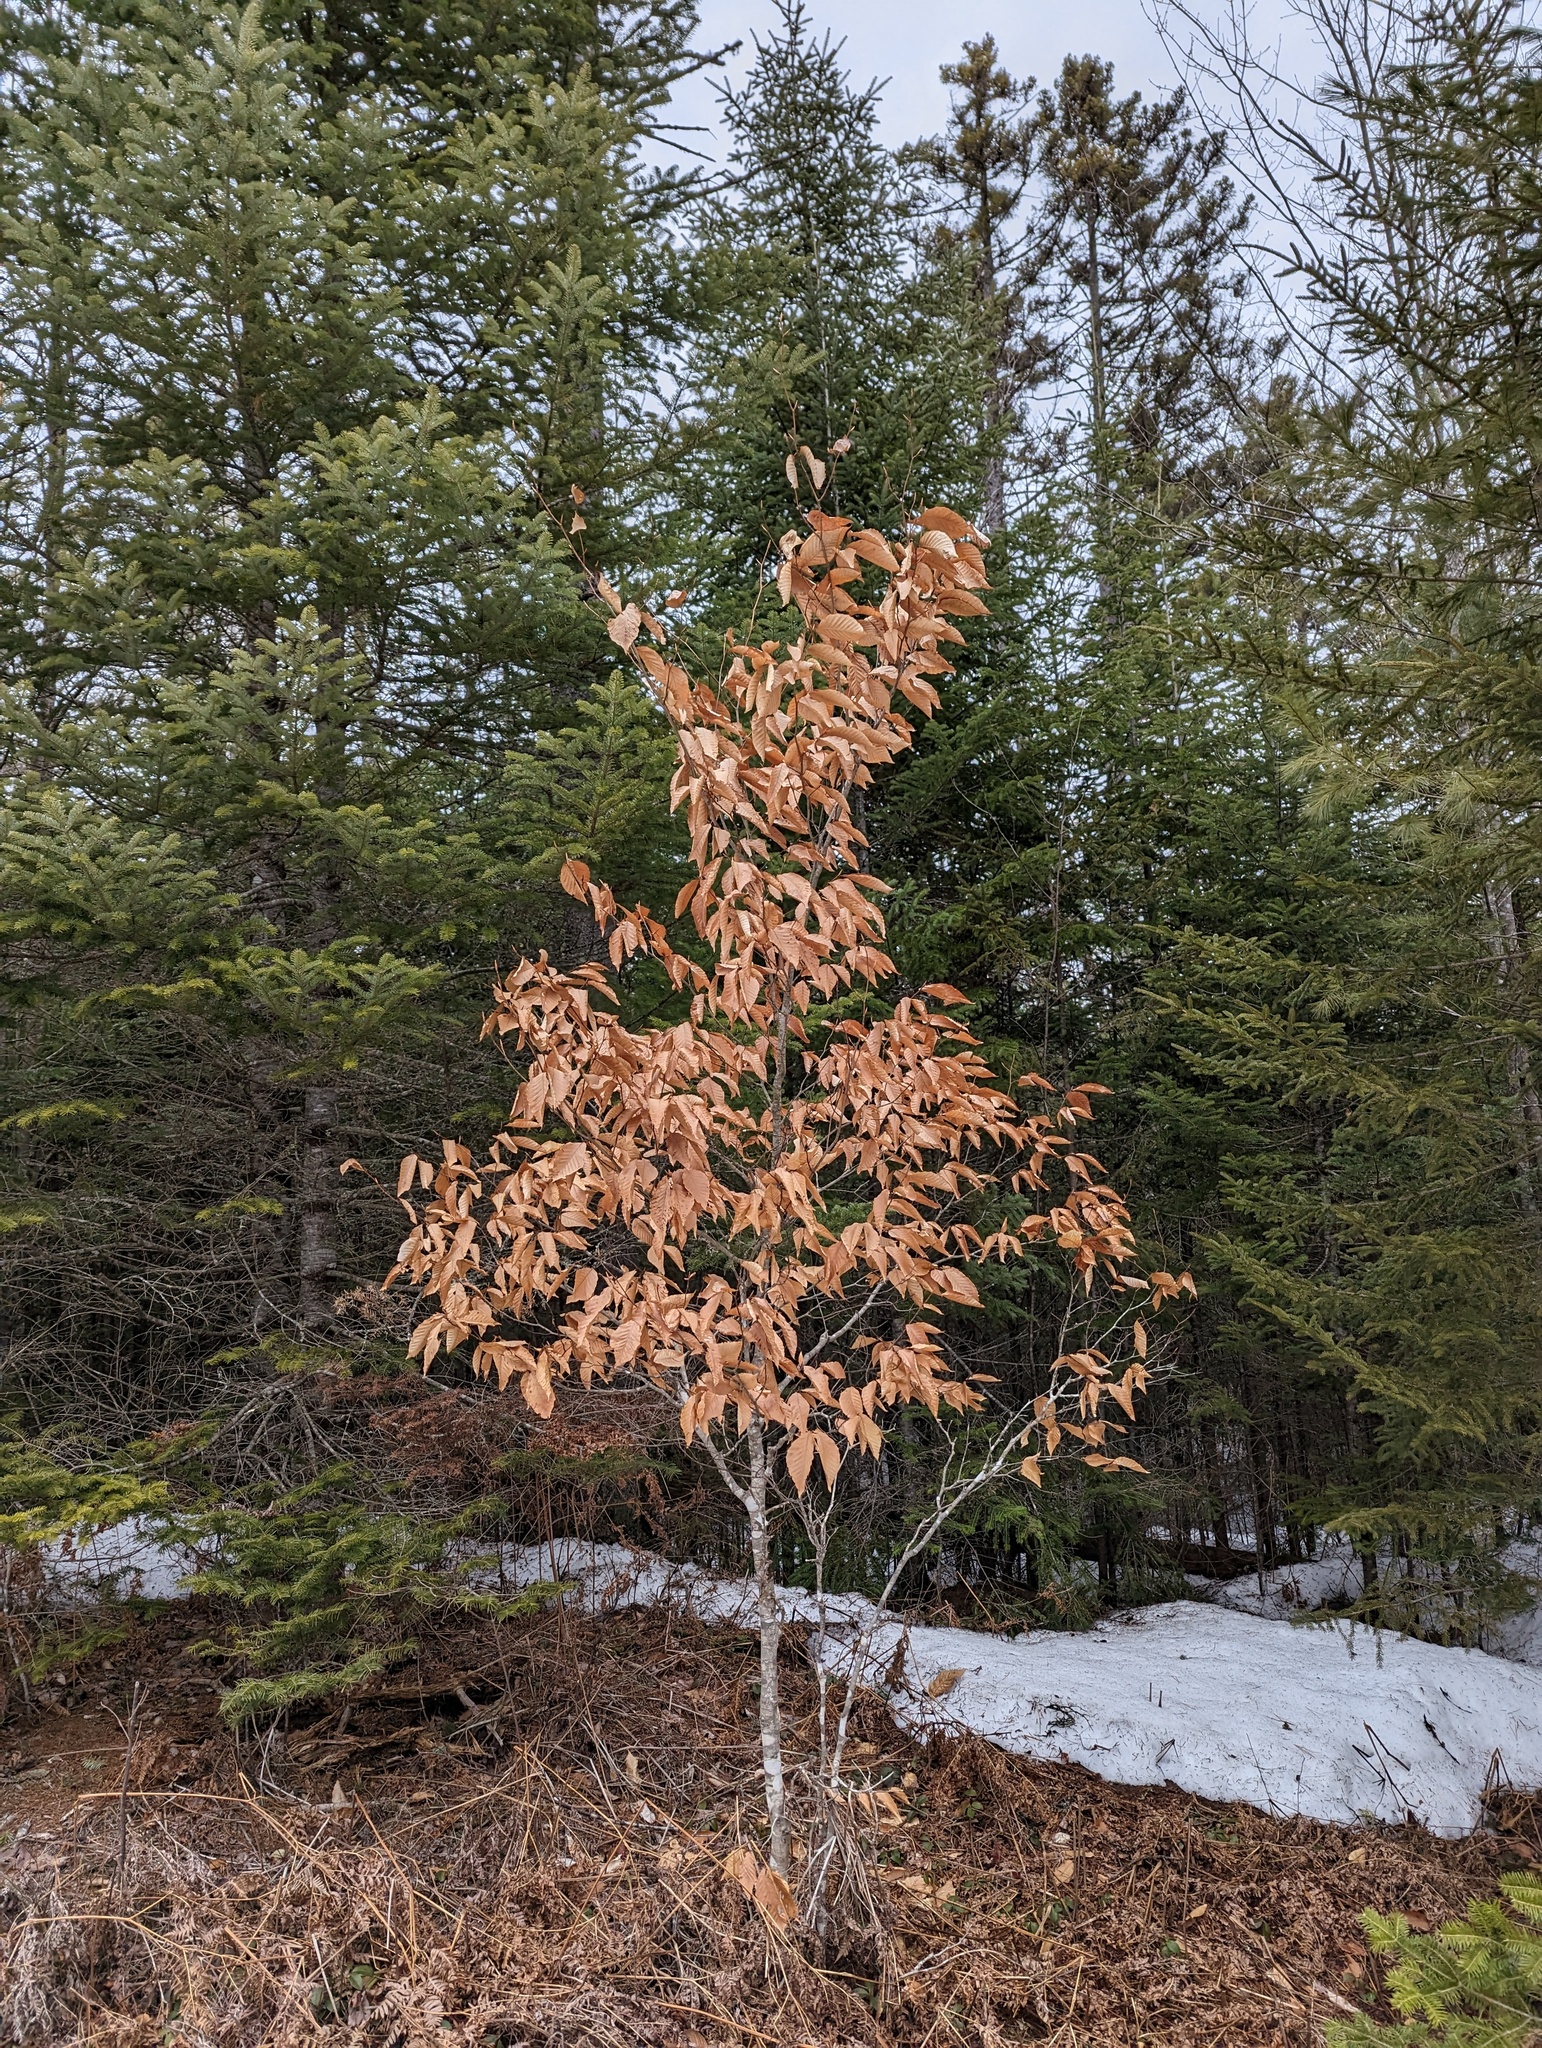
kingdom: Plantae
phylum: Tracheophyta
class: Magnoliopsida
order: Fagales
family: Fagaceae
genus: Fagus
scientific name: Fagus grandifolia
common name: American beech
